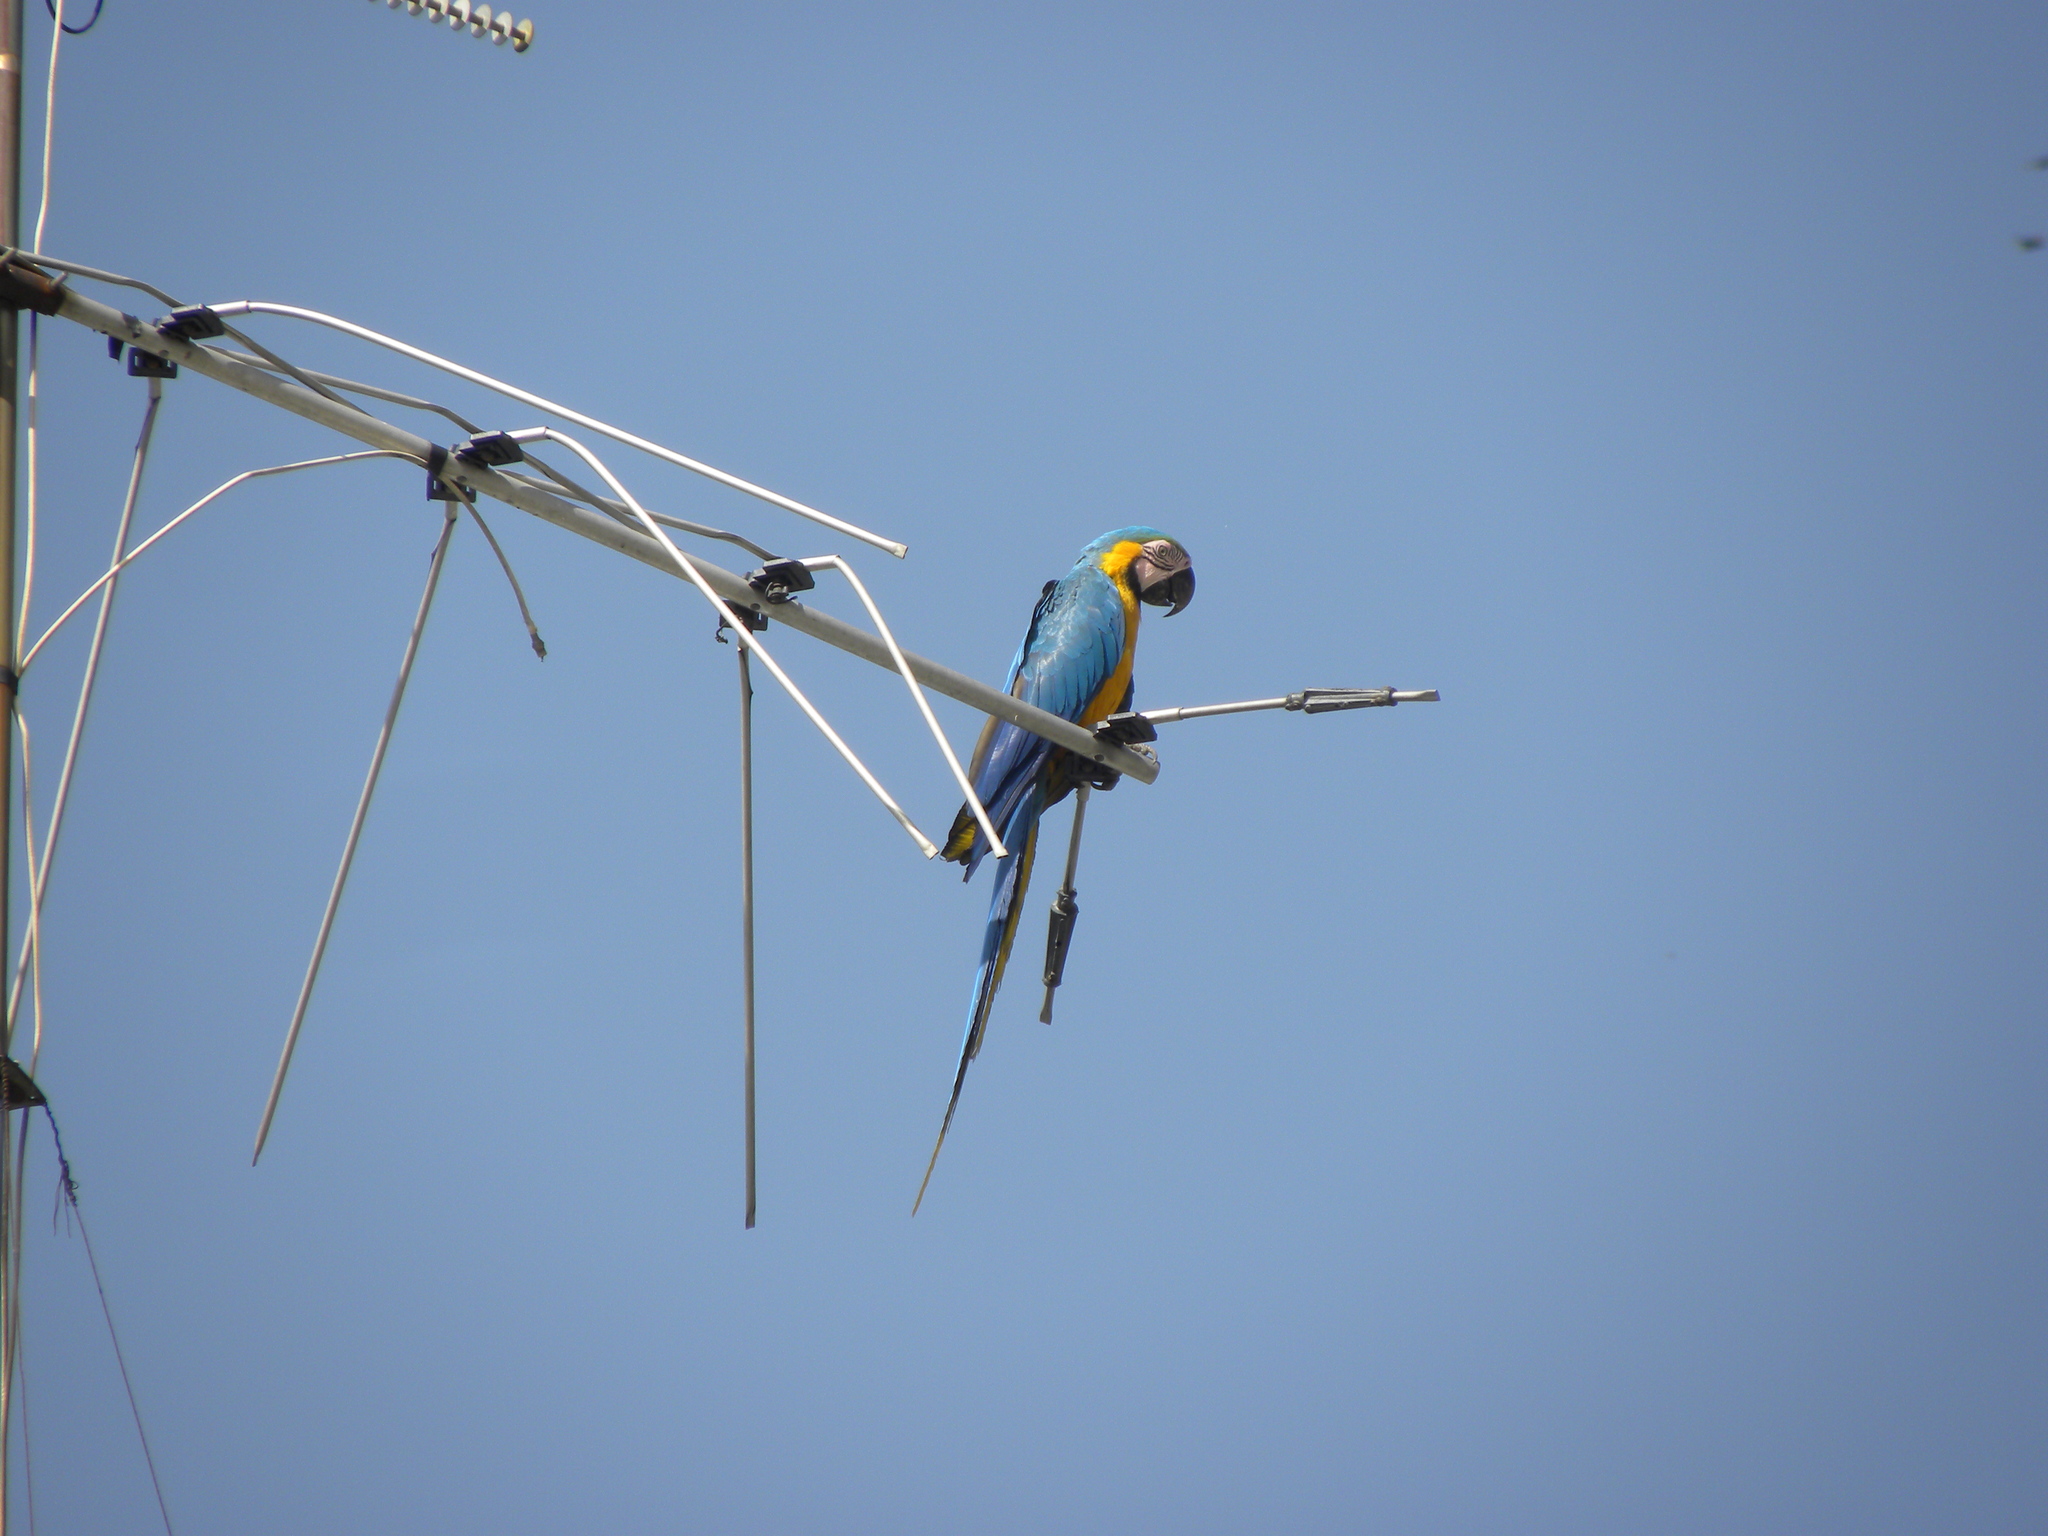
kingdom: Animalia
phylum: Chordata
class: Aves
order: Psittaciformes
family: Psittacidae
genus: Ara
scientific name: Ara ararauna
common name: Blue-and-yellow macaw
